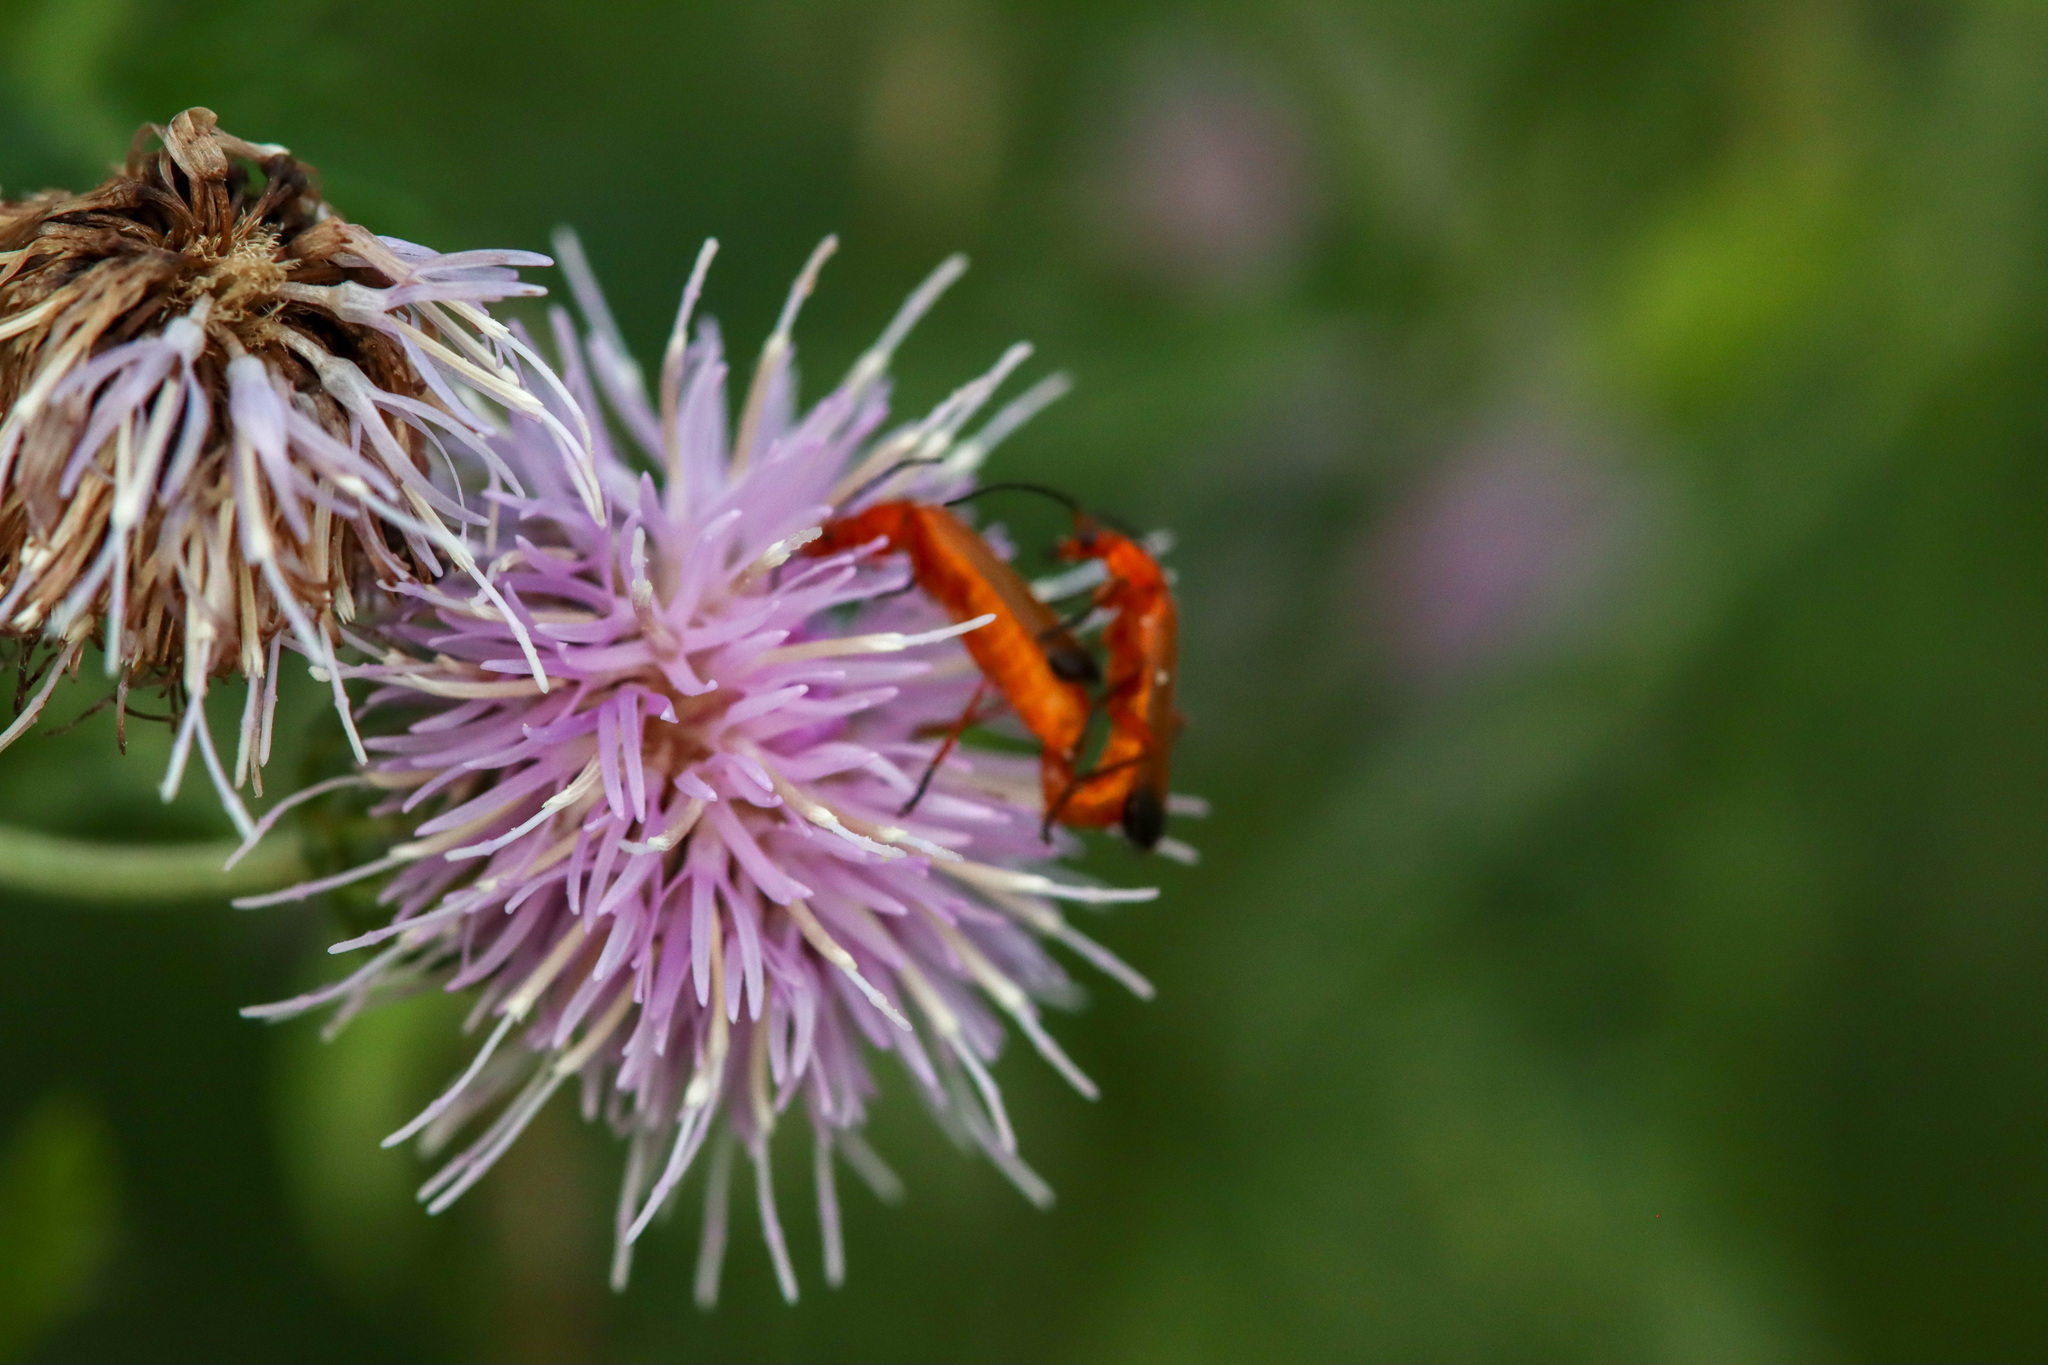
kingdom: Animalia
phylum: Arthropoda
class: Insecta
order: Coleoptera
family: Cantharidae
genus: Rhagonycha
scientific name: Rhagonycha fulva
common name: Common red soldier beetle
